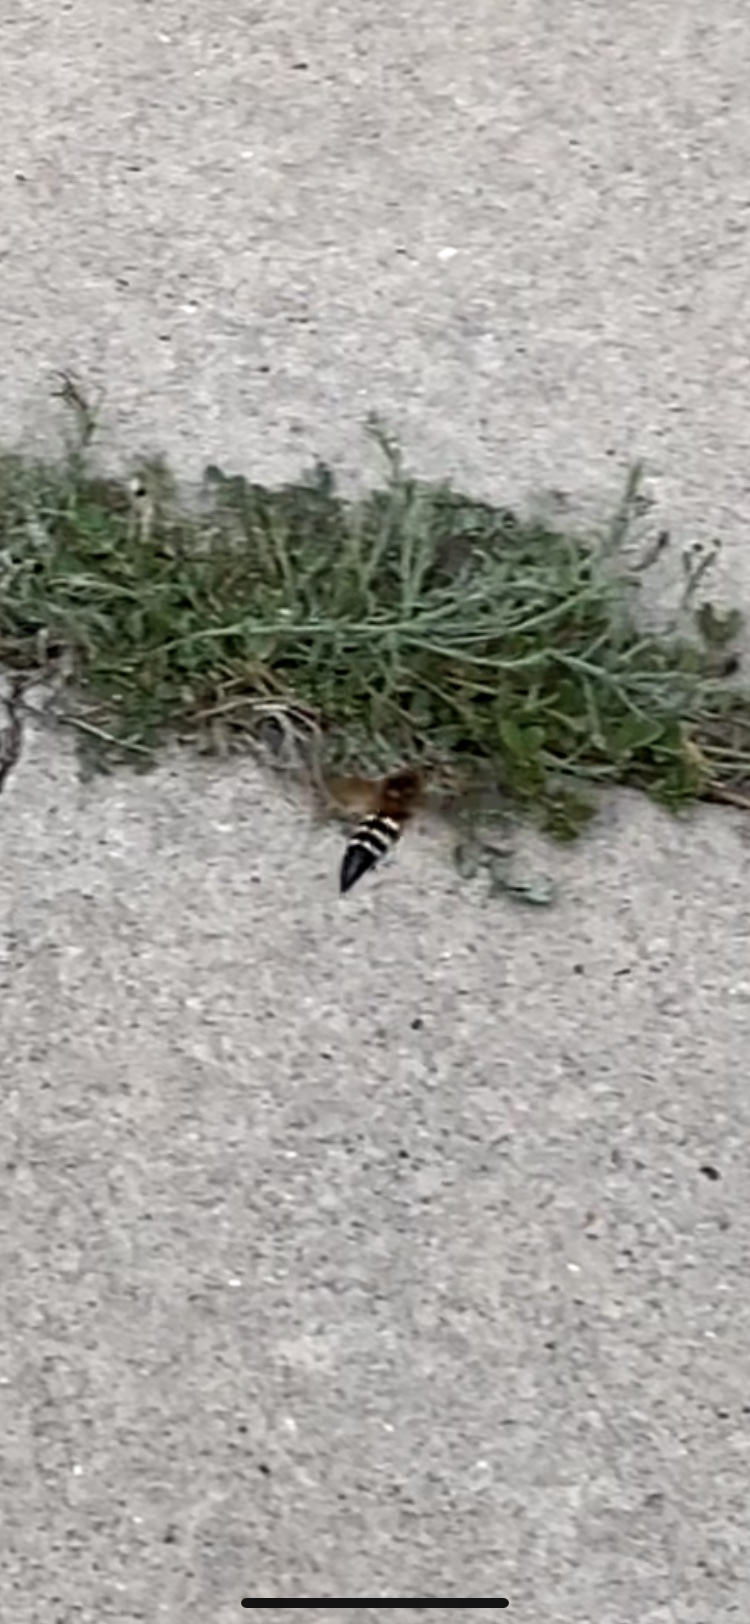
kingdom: Animalia
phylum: Arthropoda
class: Insecta
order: Hymenoptera
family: Crabronidae
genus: Sphecius
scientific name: Sphecius speciosus
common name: Cicada killer
